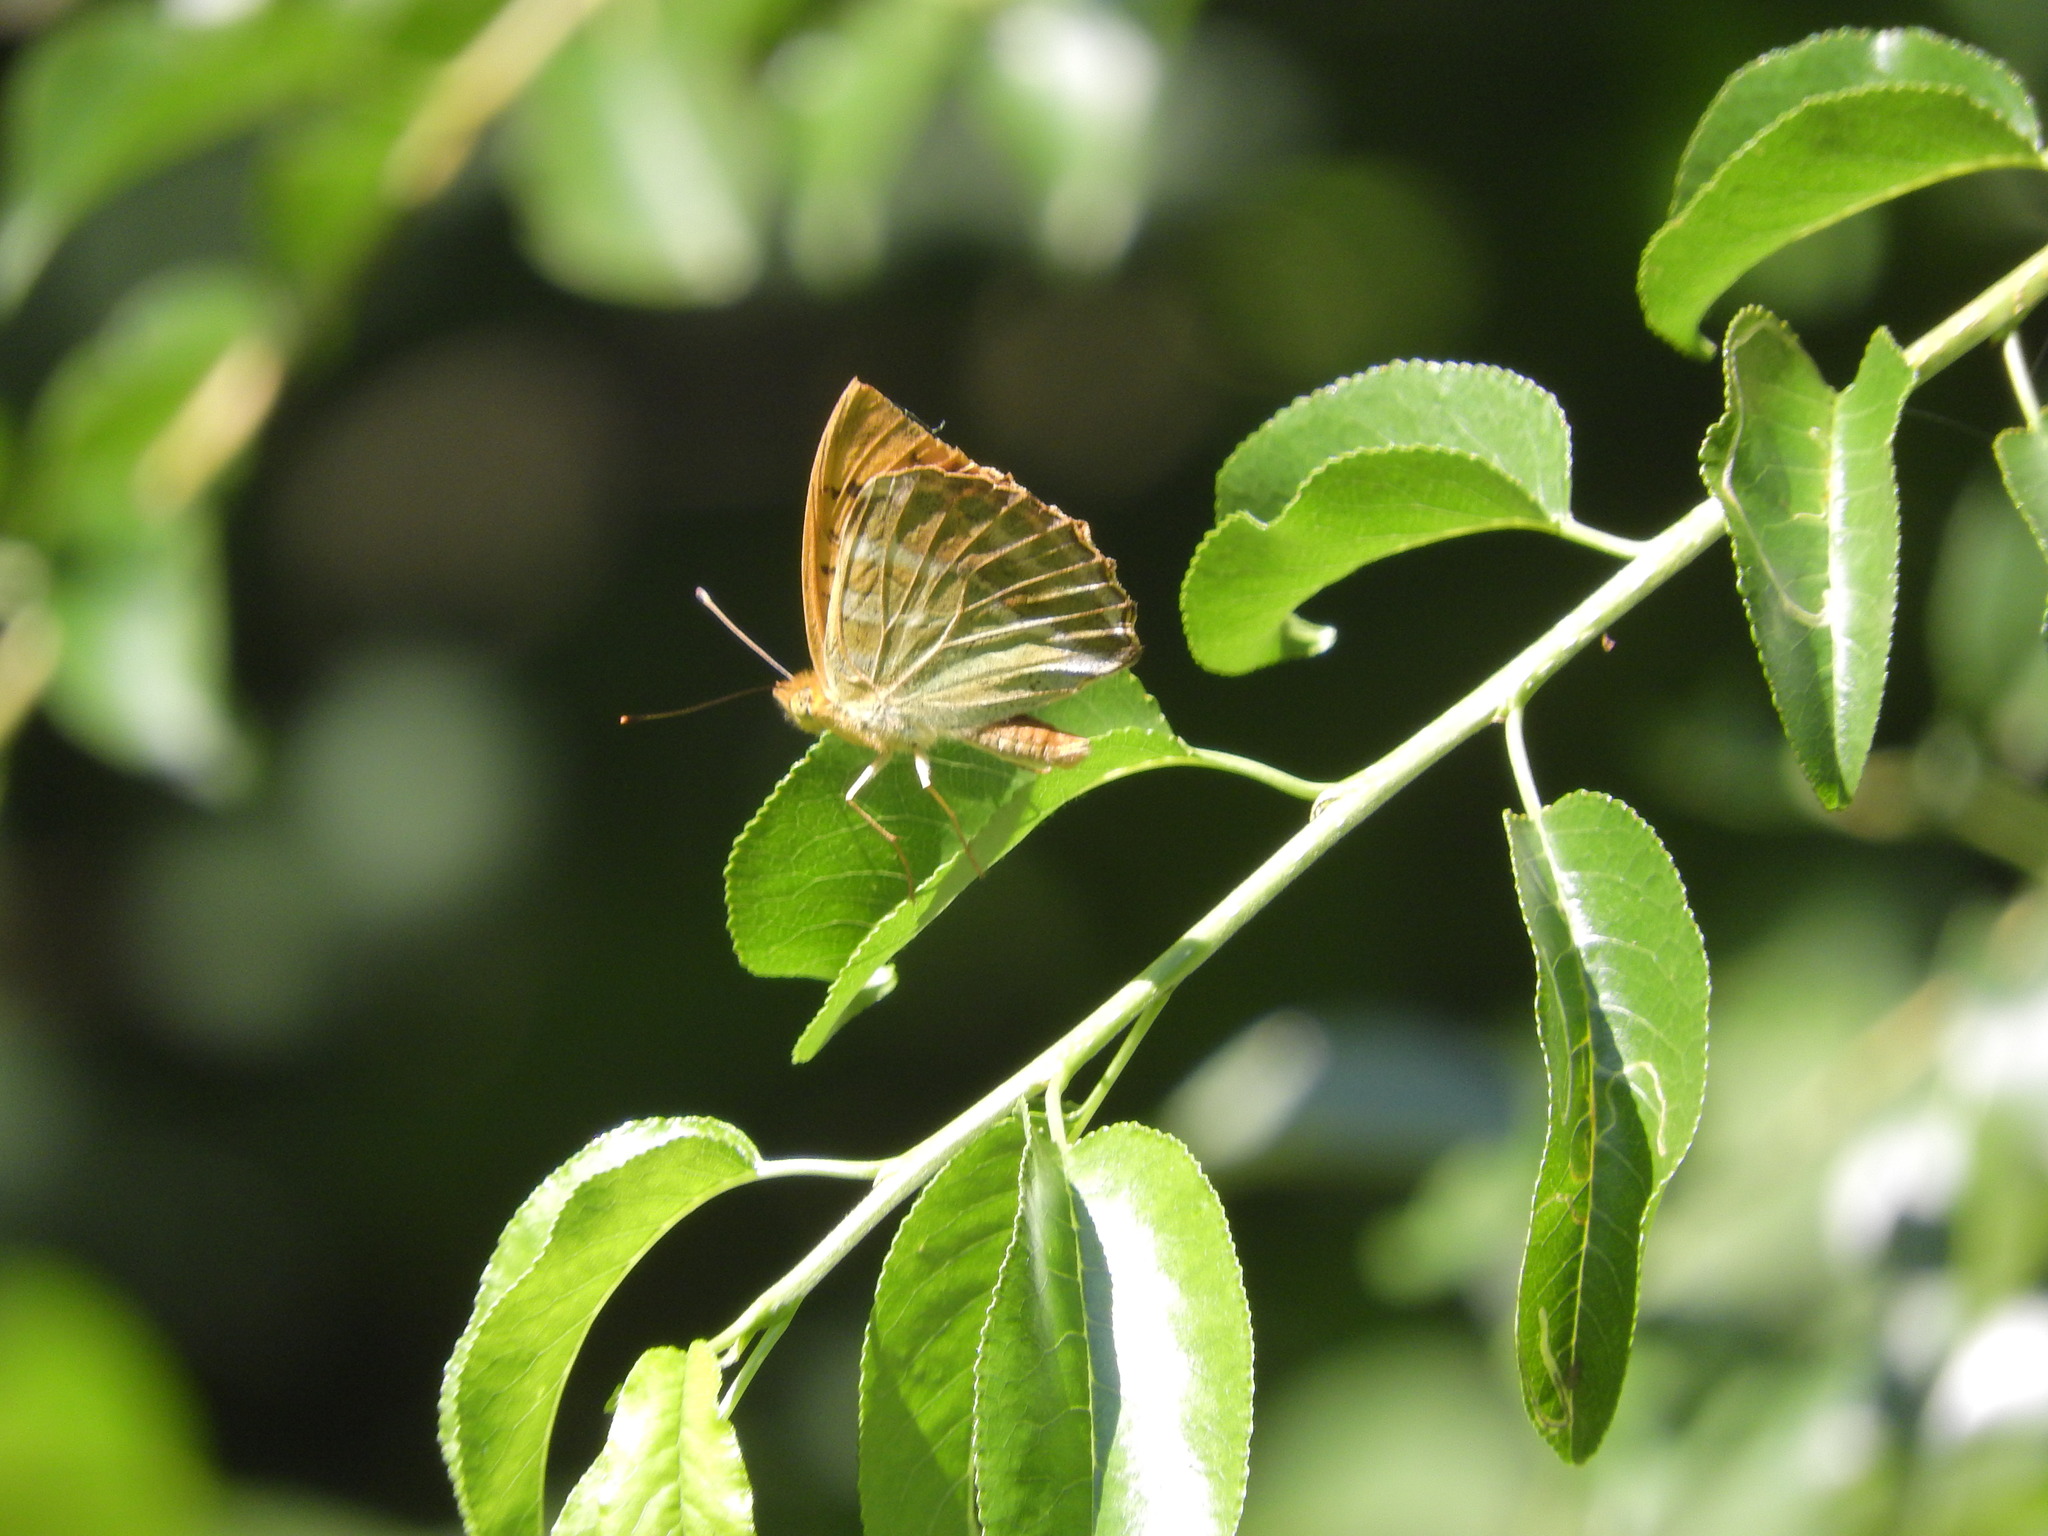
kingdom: Animalia
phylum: Arthropoda
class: Insecta
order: Lepidoptera
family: Nymphalidae
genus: Argynnis
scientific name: Argynnis paphia
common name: Silver-washed fritillary
